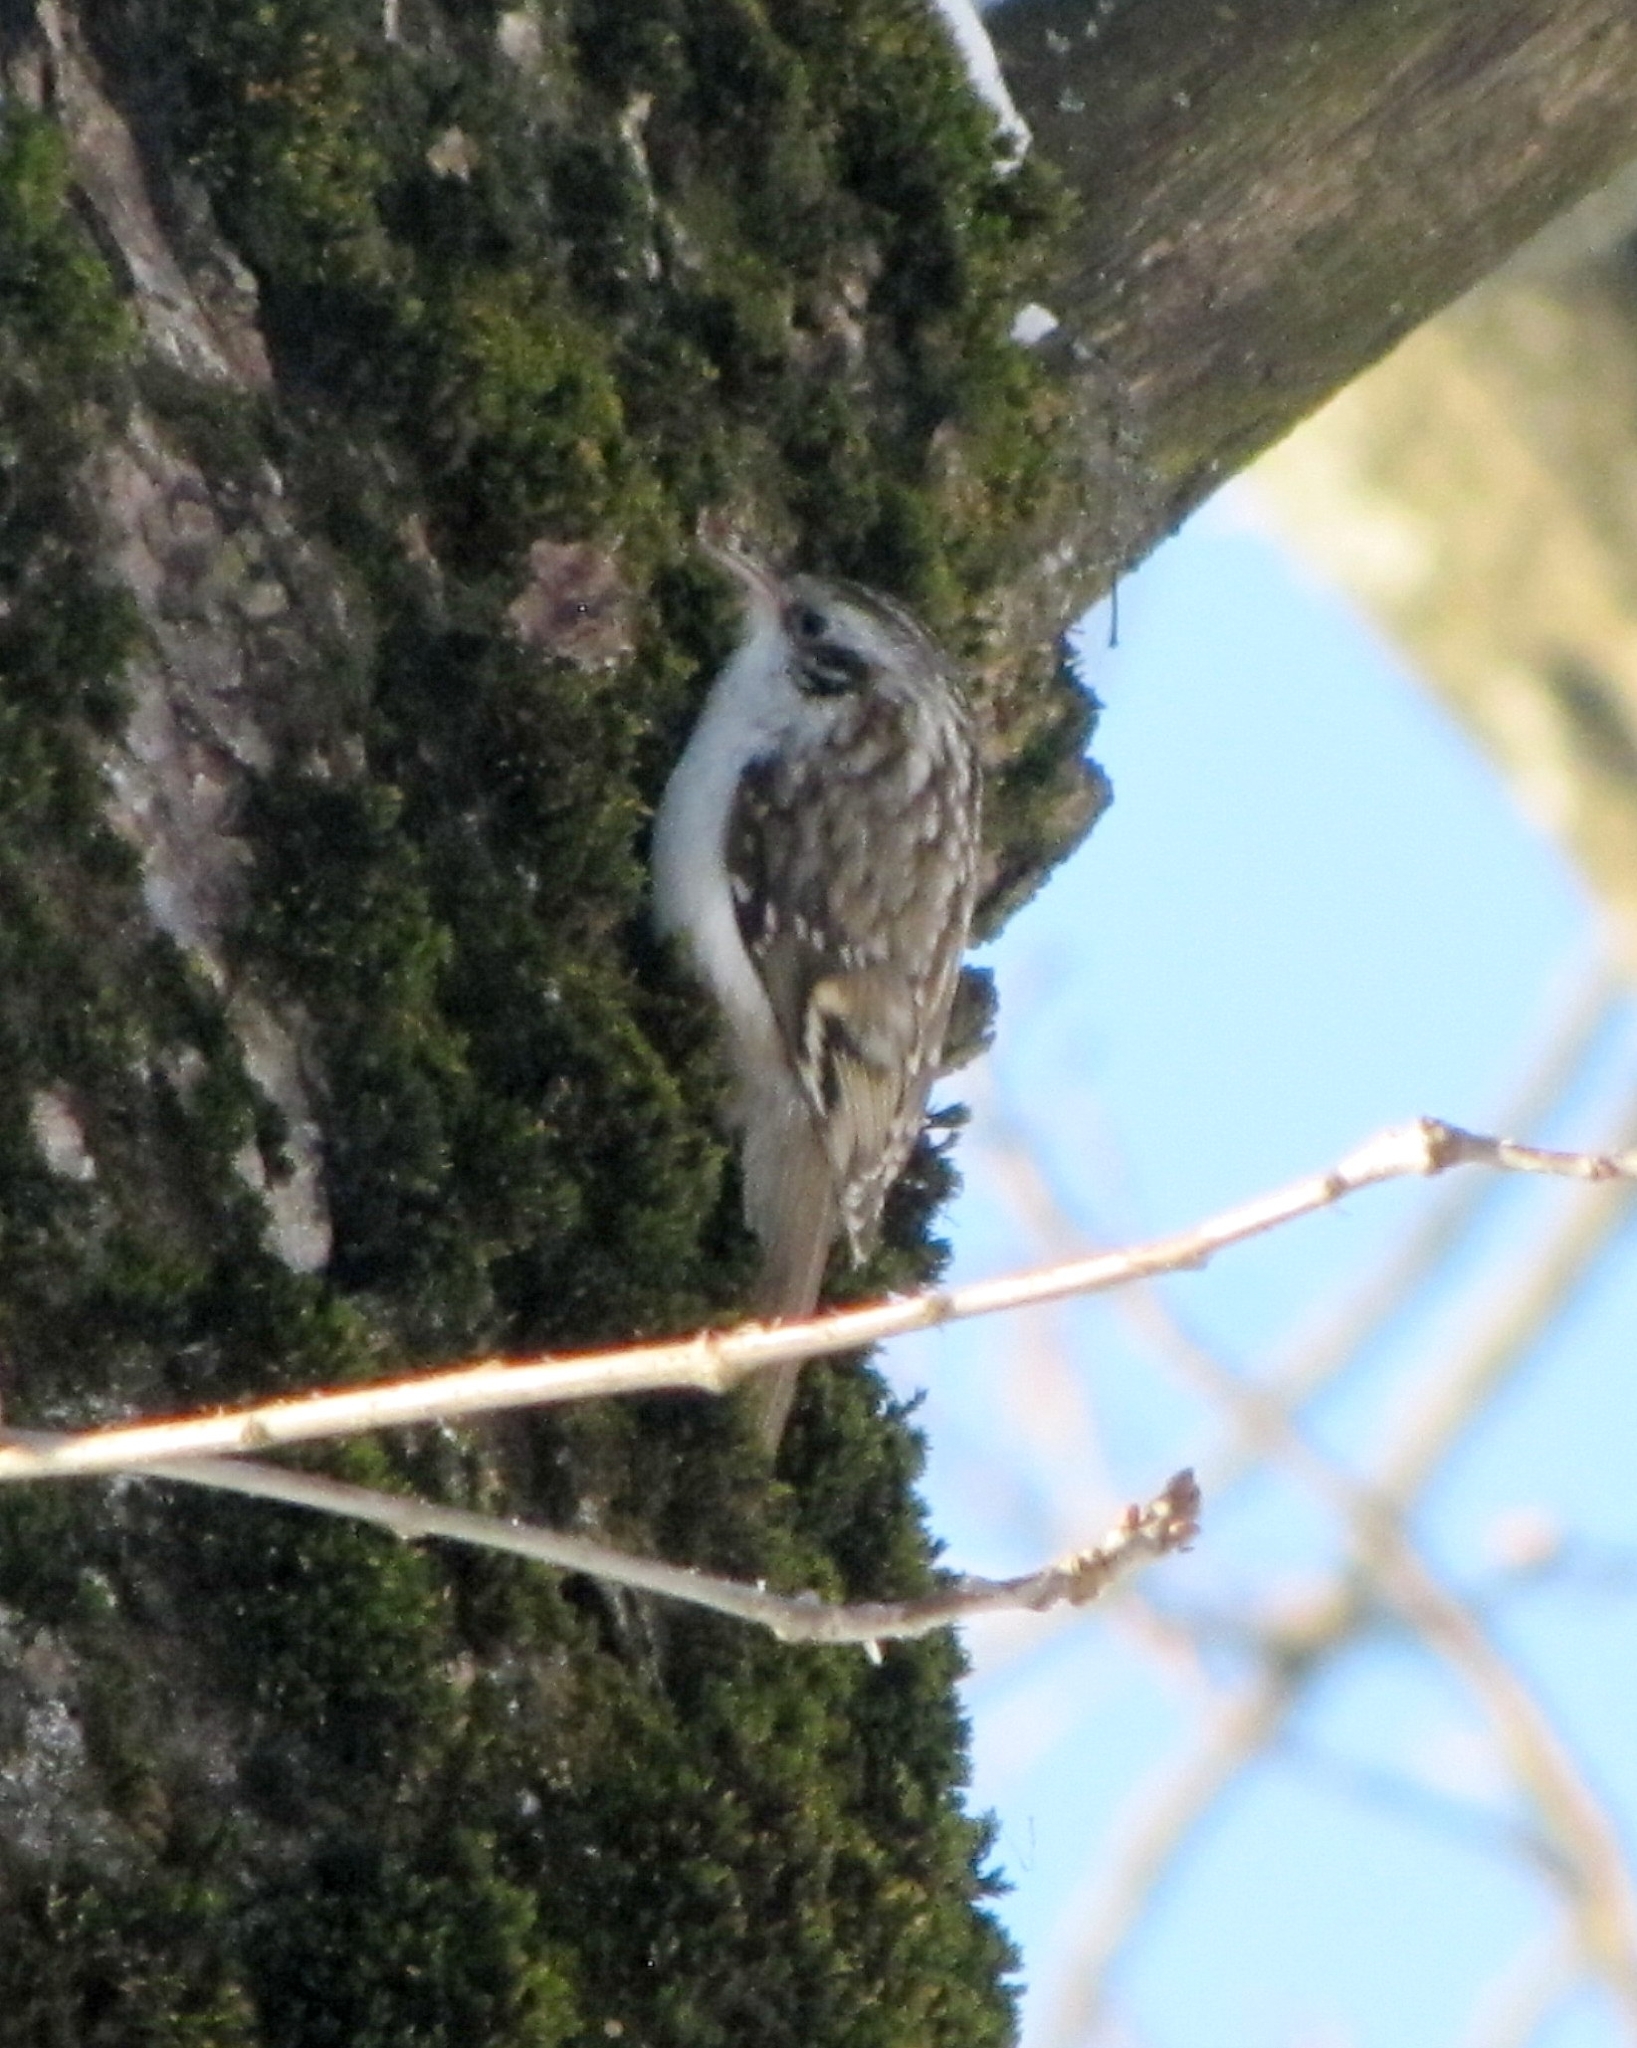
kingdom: Animalia
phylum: Chordata
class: Aves
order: Passeriformes
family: Certhiidae
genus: Certhia
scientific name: Certhia familiaris
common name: Eurasian treecreeper
